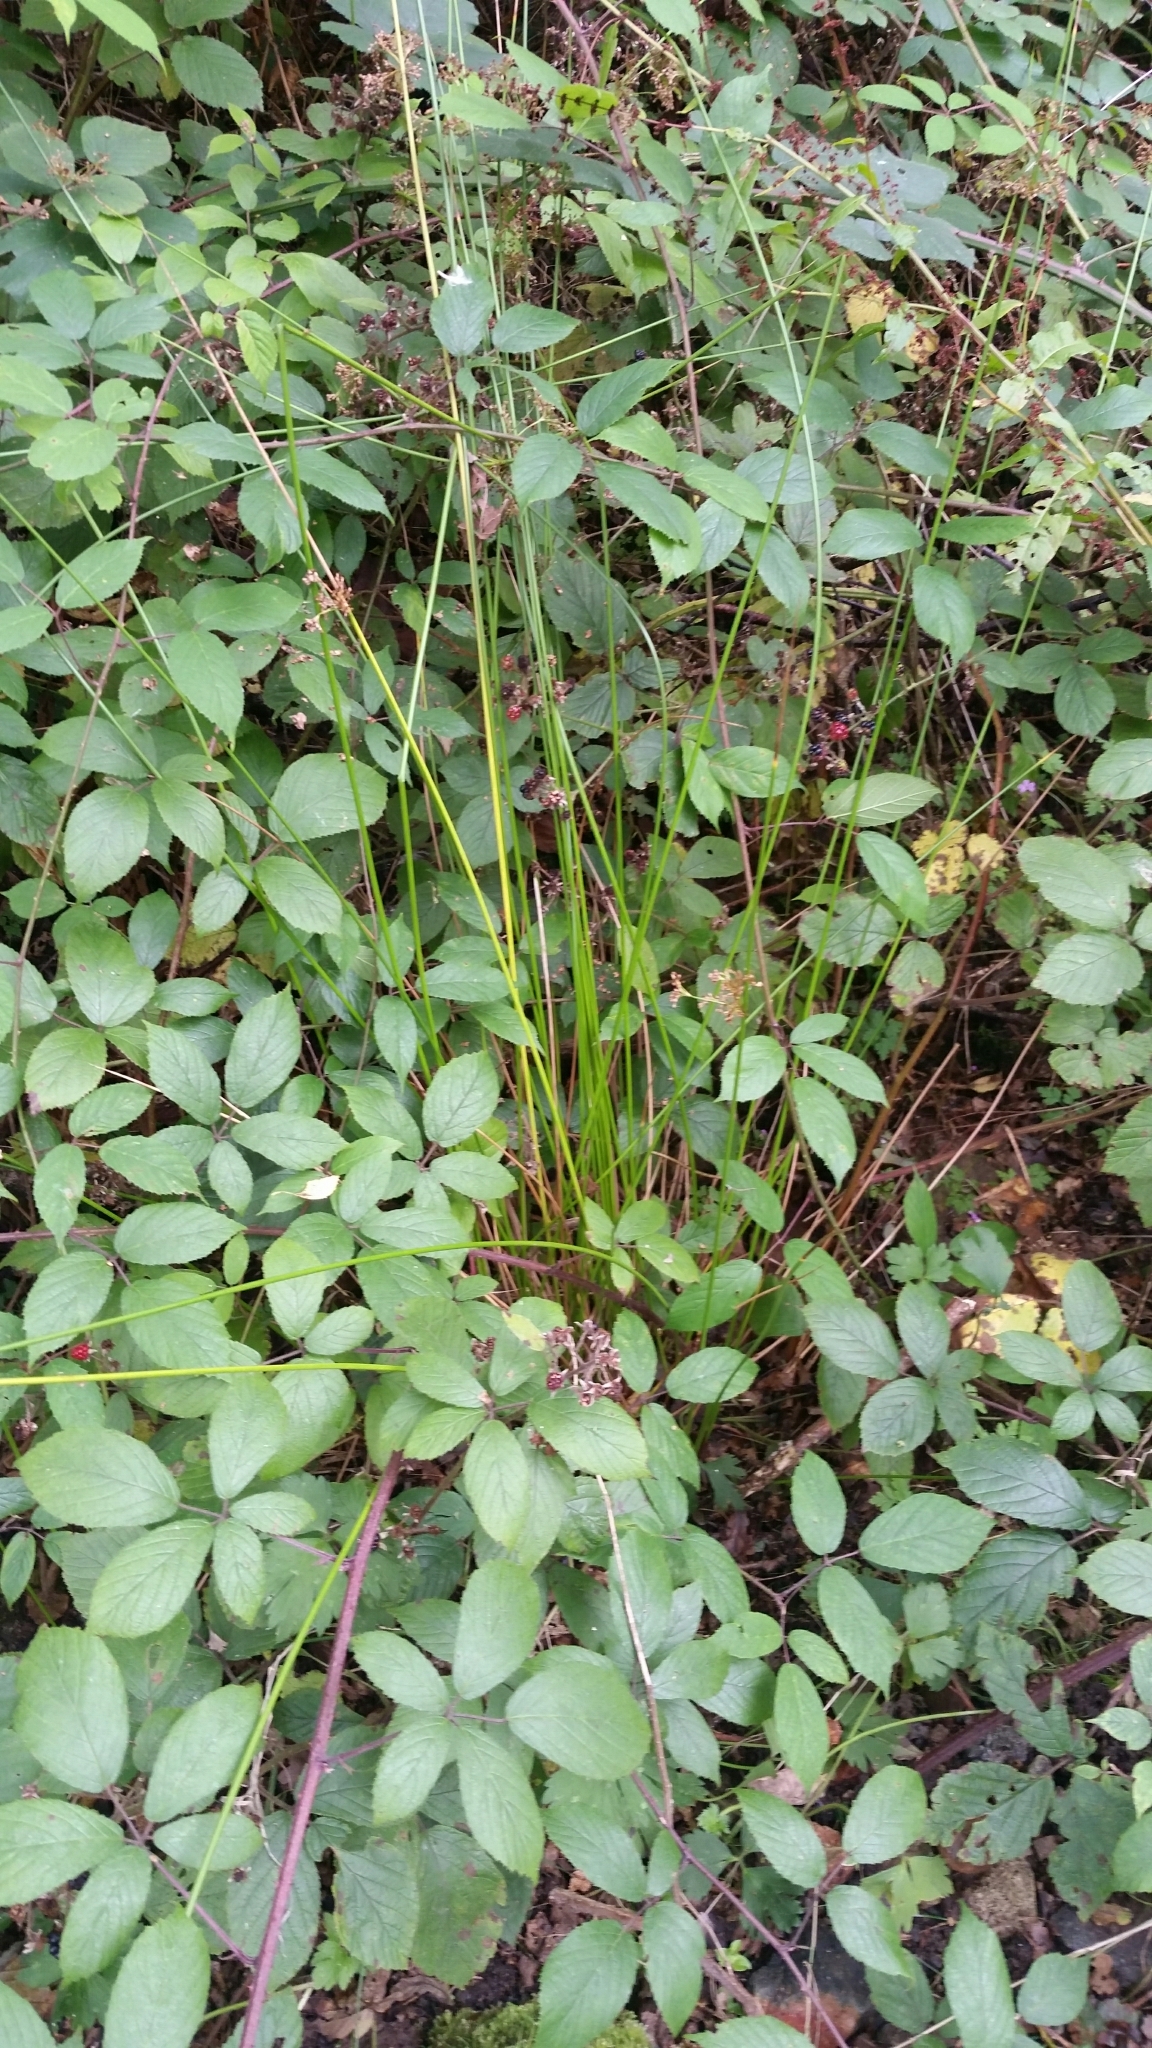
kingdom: Plantae
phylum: Tracheophyta
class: Liliopsida
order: Poales
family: Juncaceae
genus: Juncus
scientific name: Juncus effusus
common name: Soft rush
